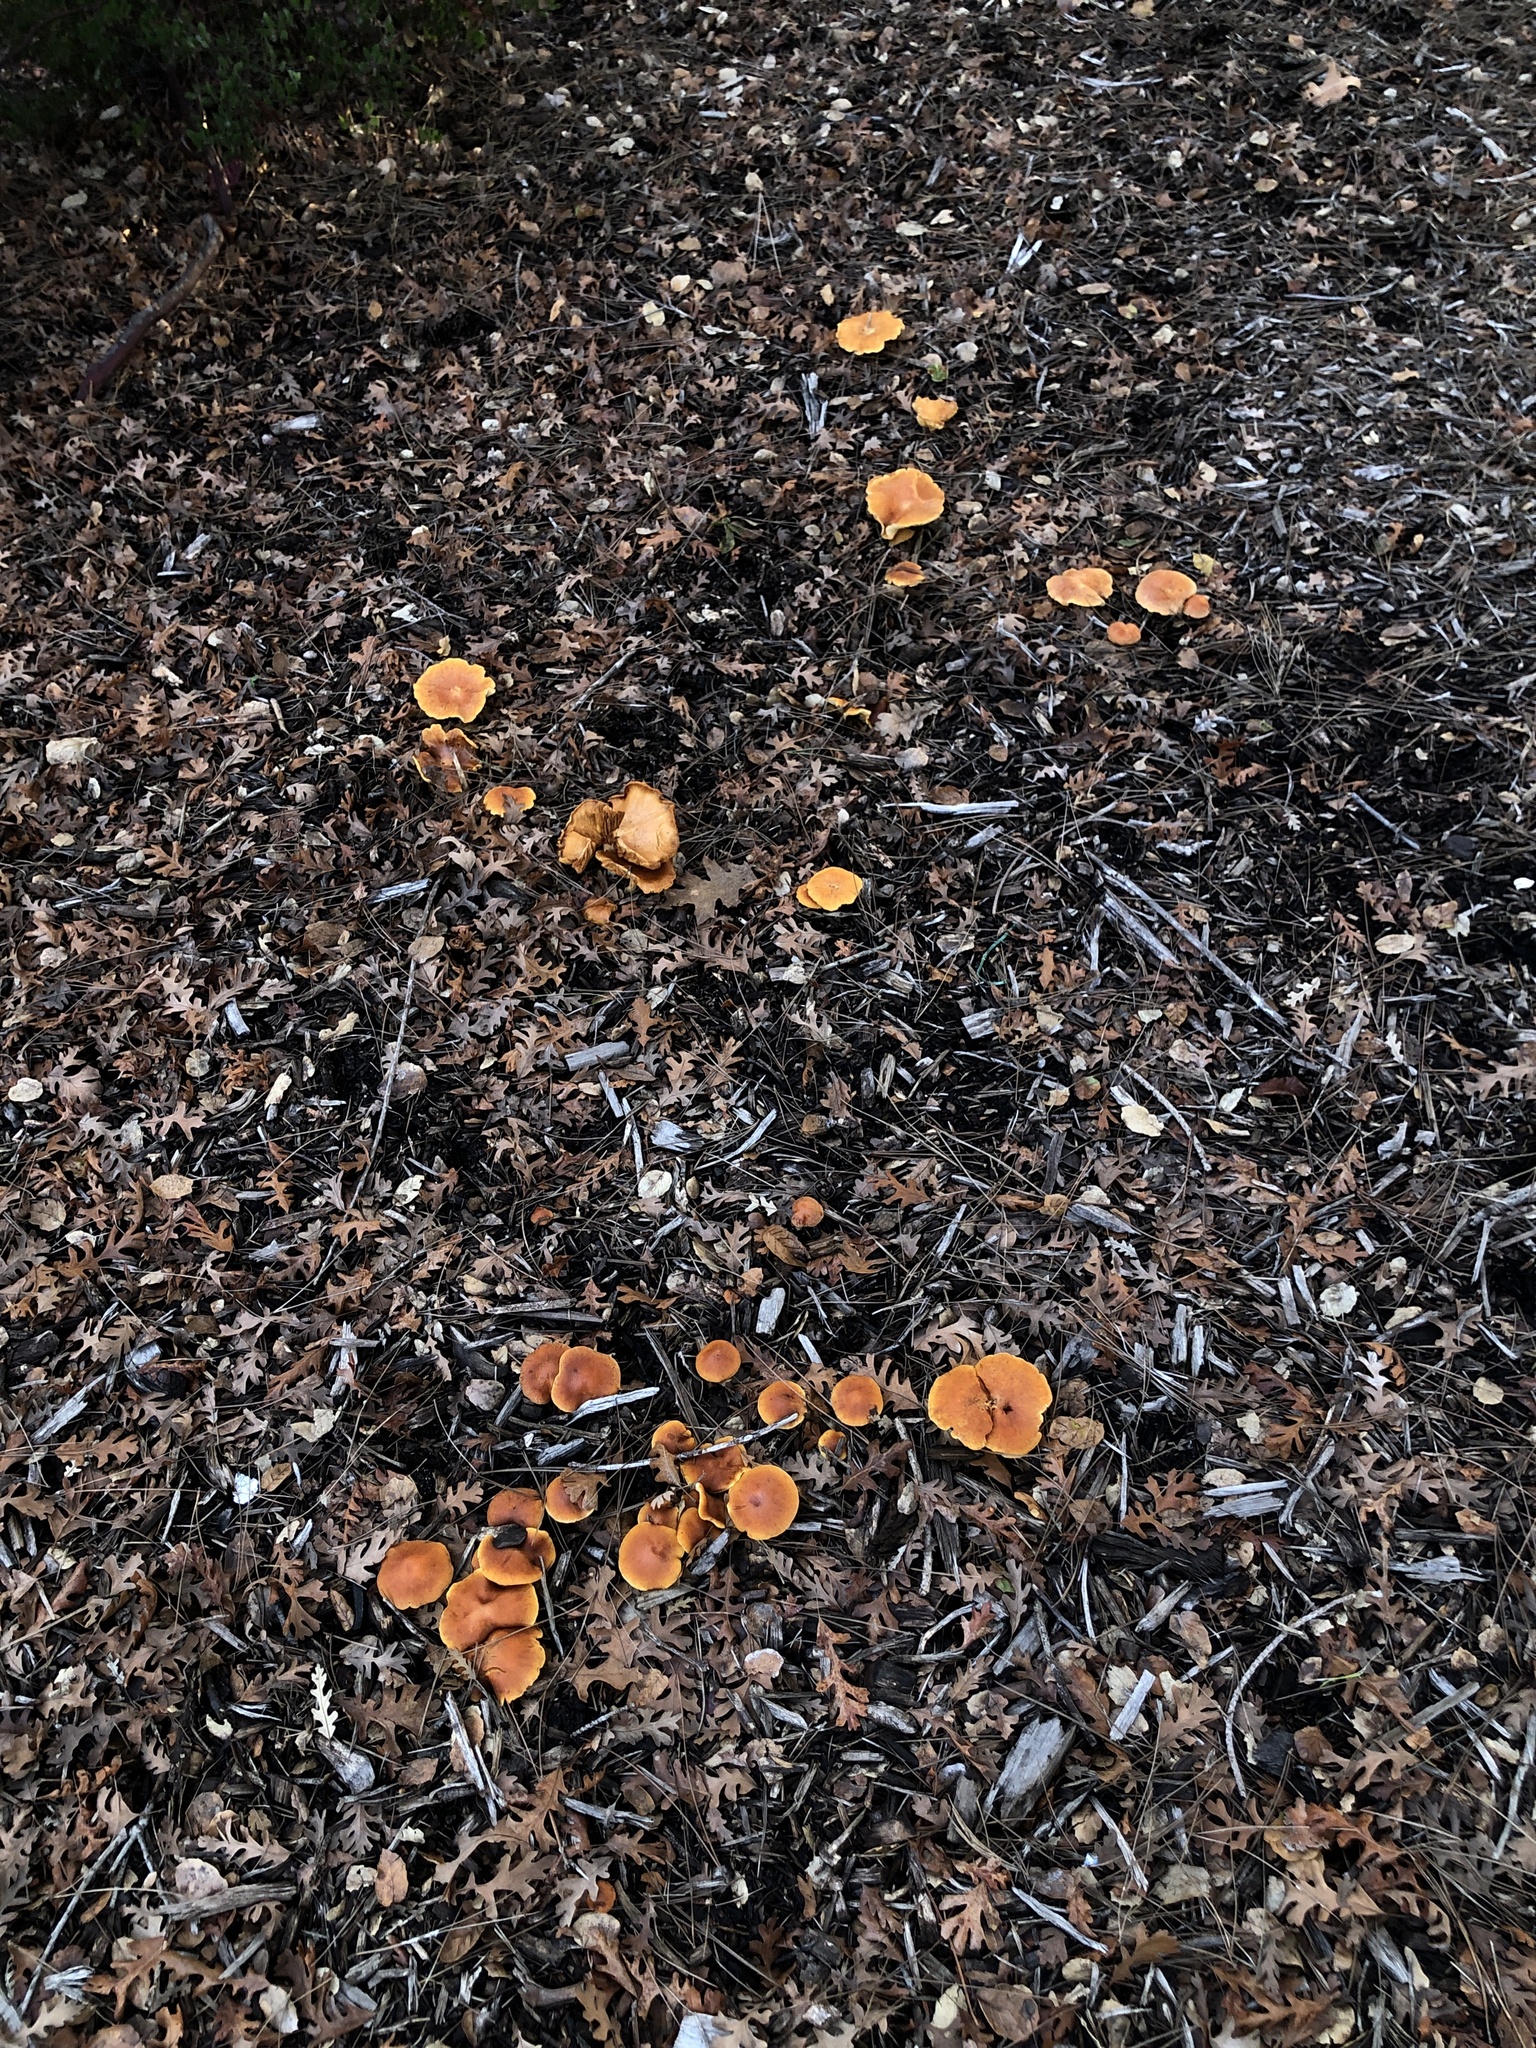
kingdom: Fungi
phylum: Basidiomycota
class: Agaricomycetes
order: Agaricales
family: Hymenogastraceae
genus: Gymnopilus
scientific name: Gymnopilus aurantiophyllus
